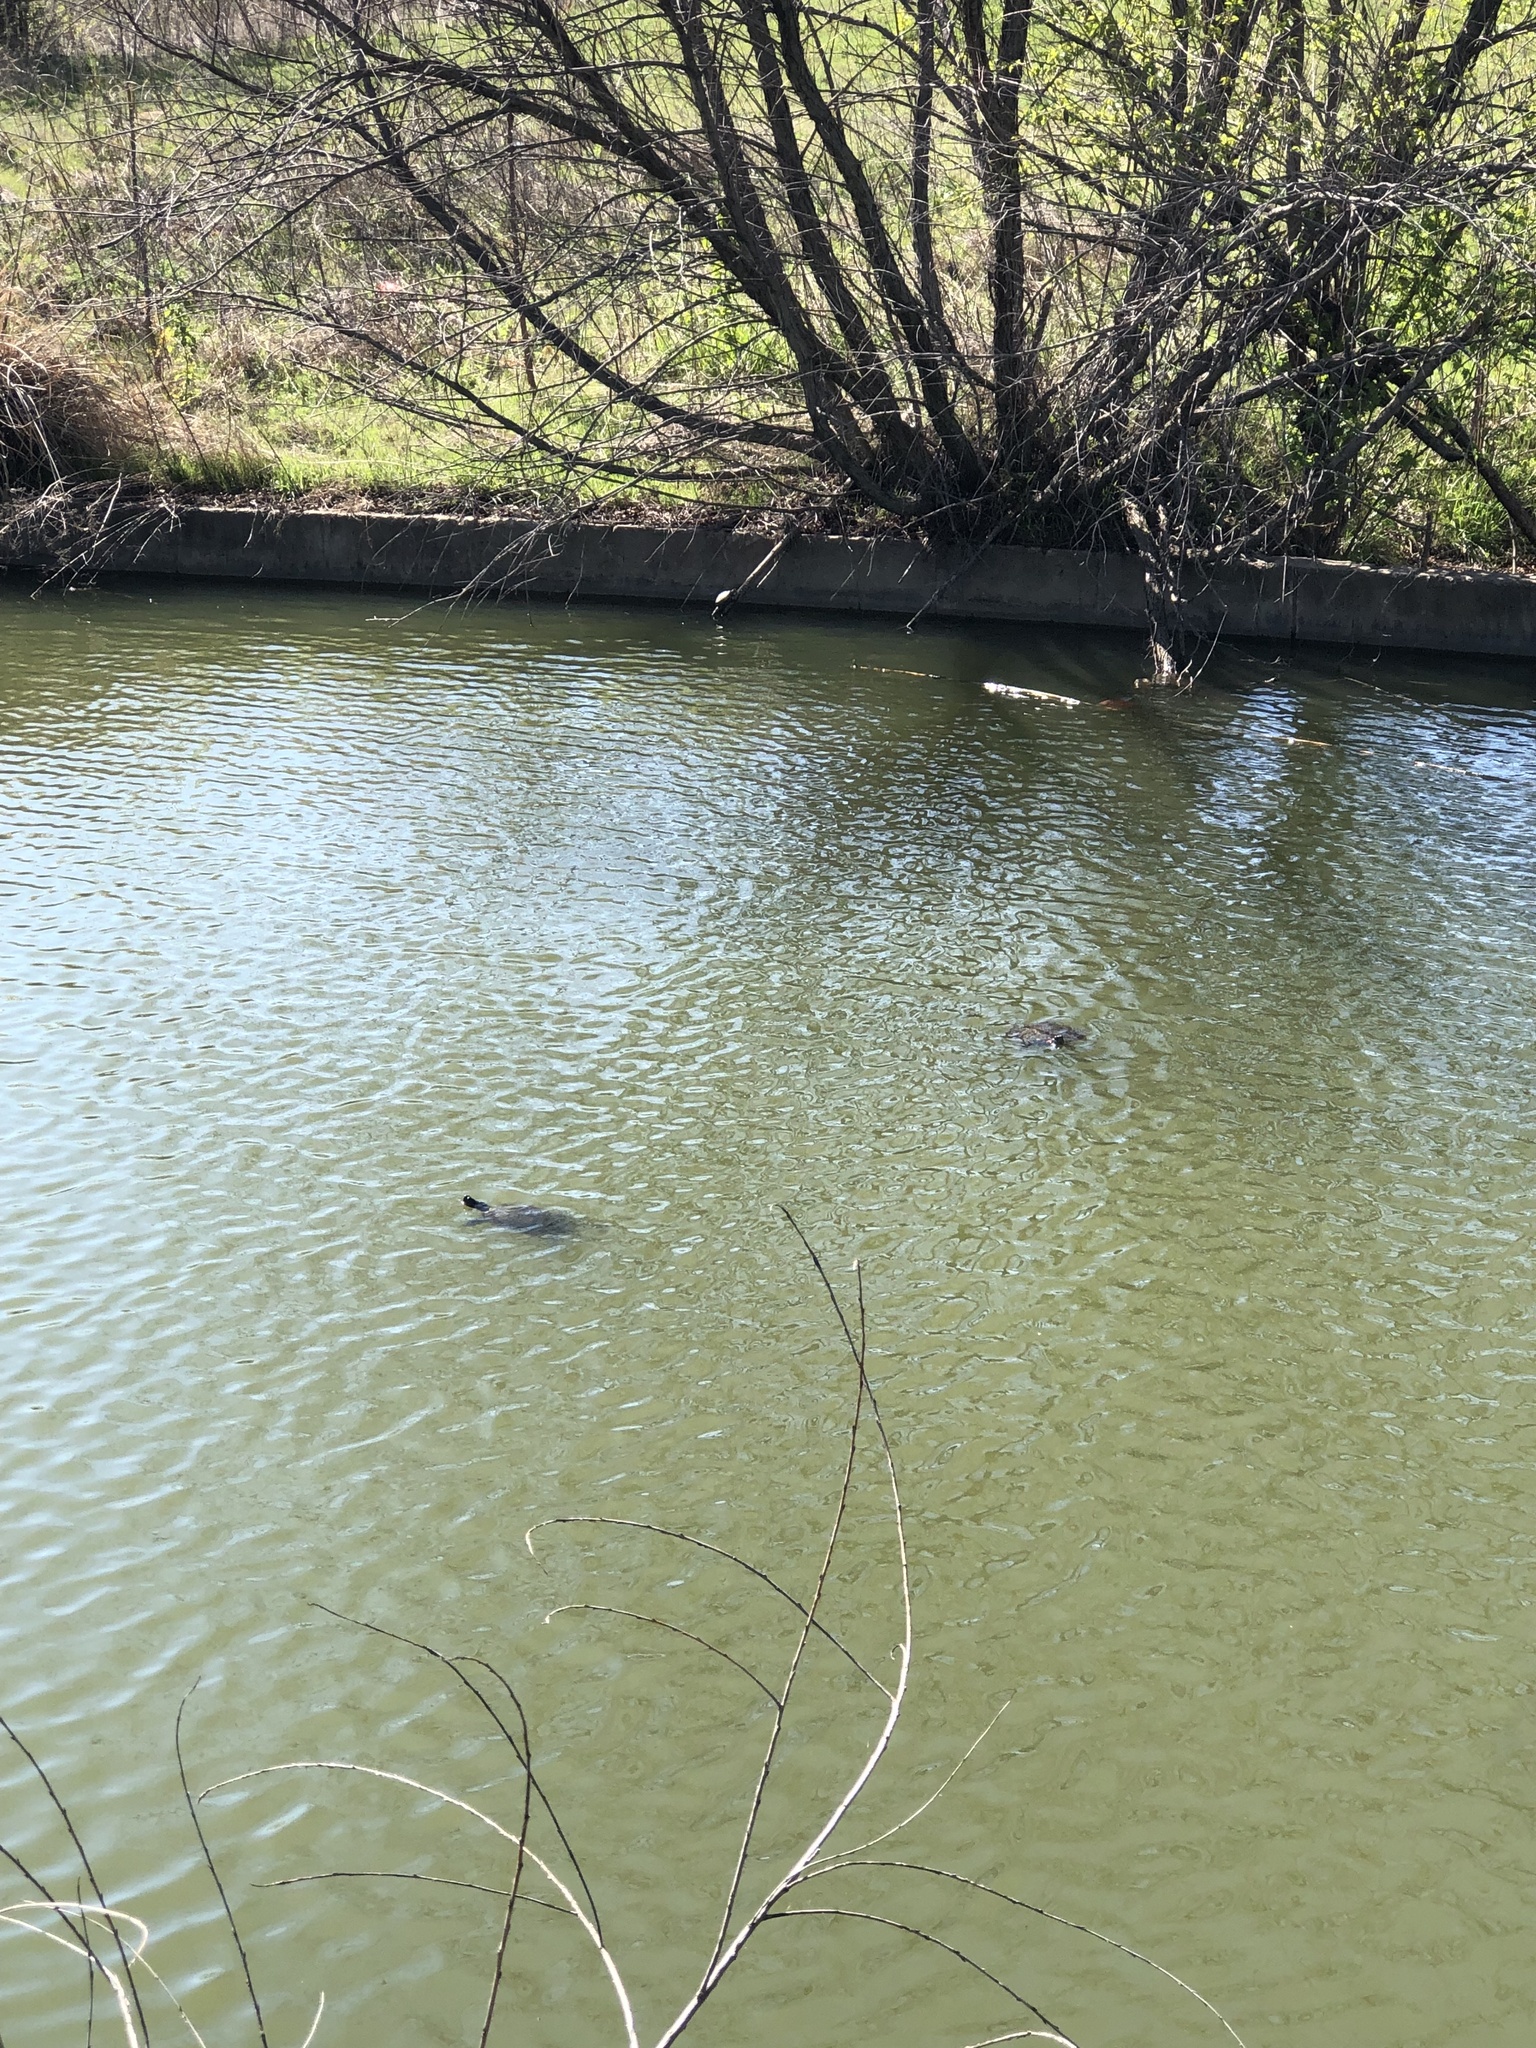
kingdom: Animalia
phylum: Chordata
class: Testudines
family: Emydidae
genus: Trachemys
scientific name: Trachemys scripta
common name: Slider
